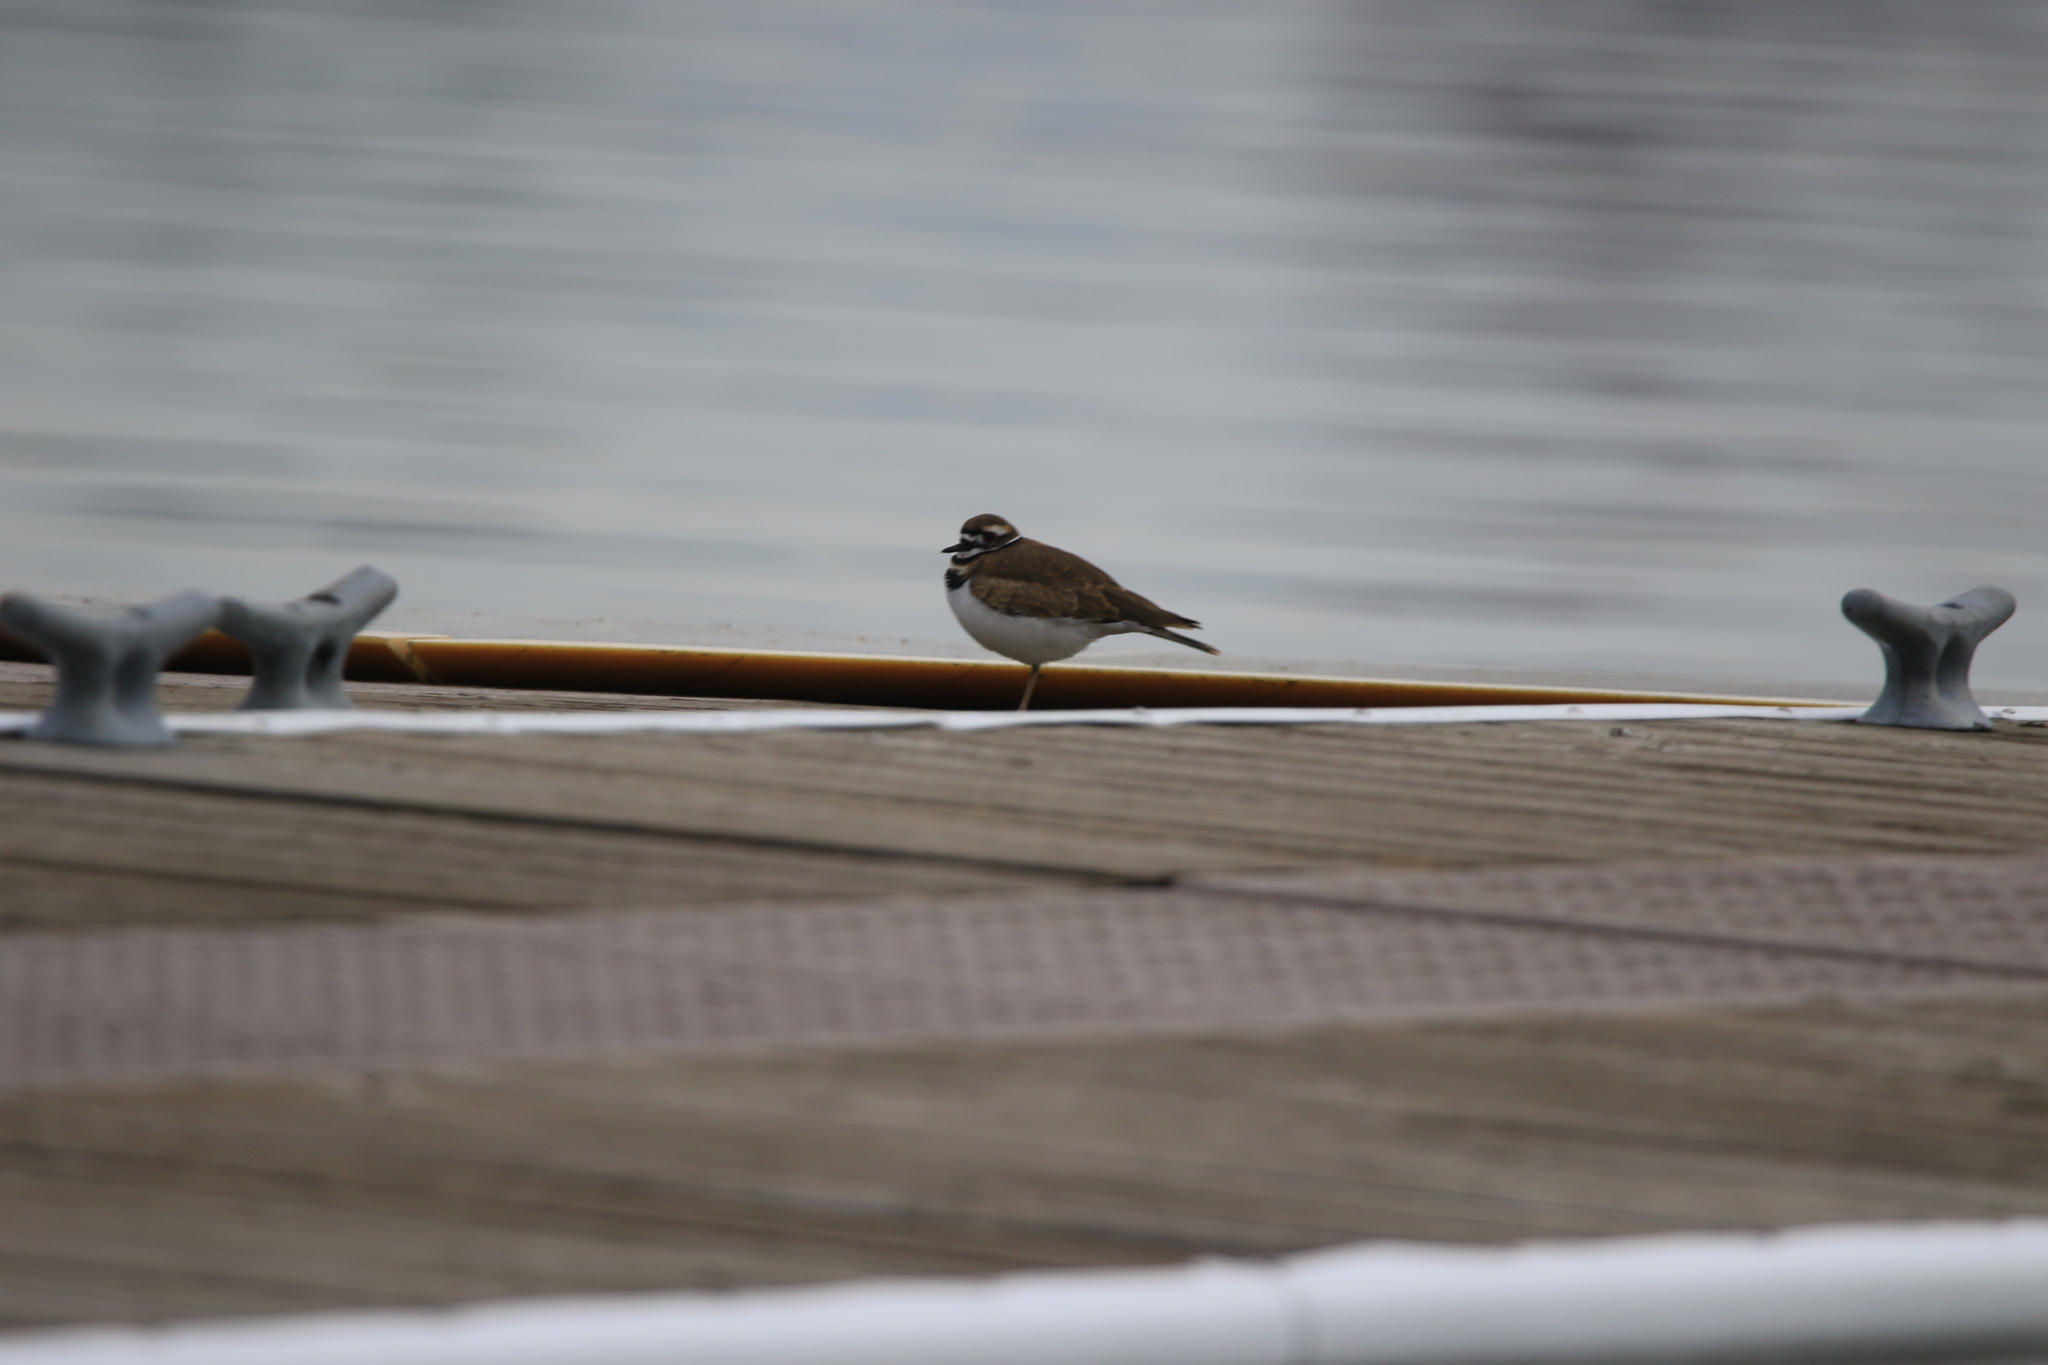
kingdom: Animalia
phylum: Chordata
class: Aves
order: Charadriiformes
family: Charadriidae
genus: Charadrius
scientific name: Charadrius vociferus
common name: Killdeer
